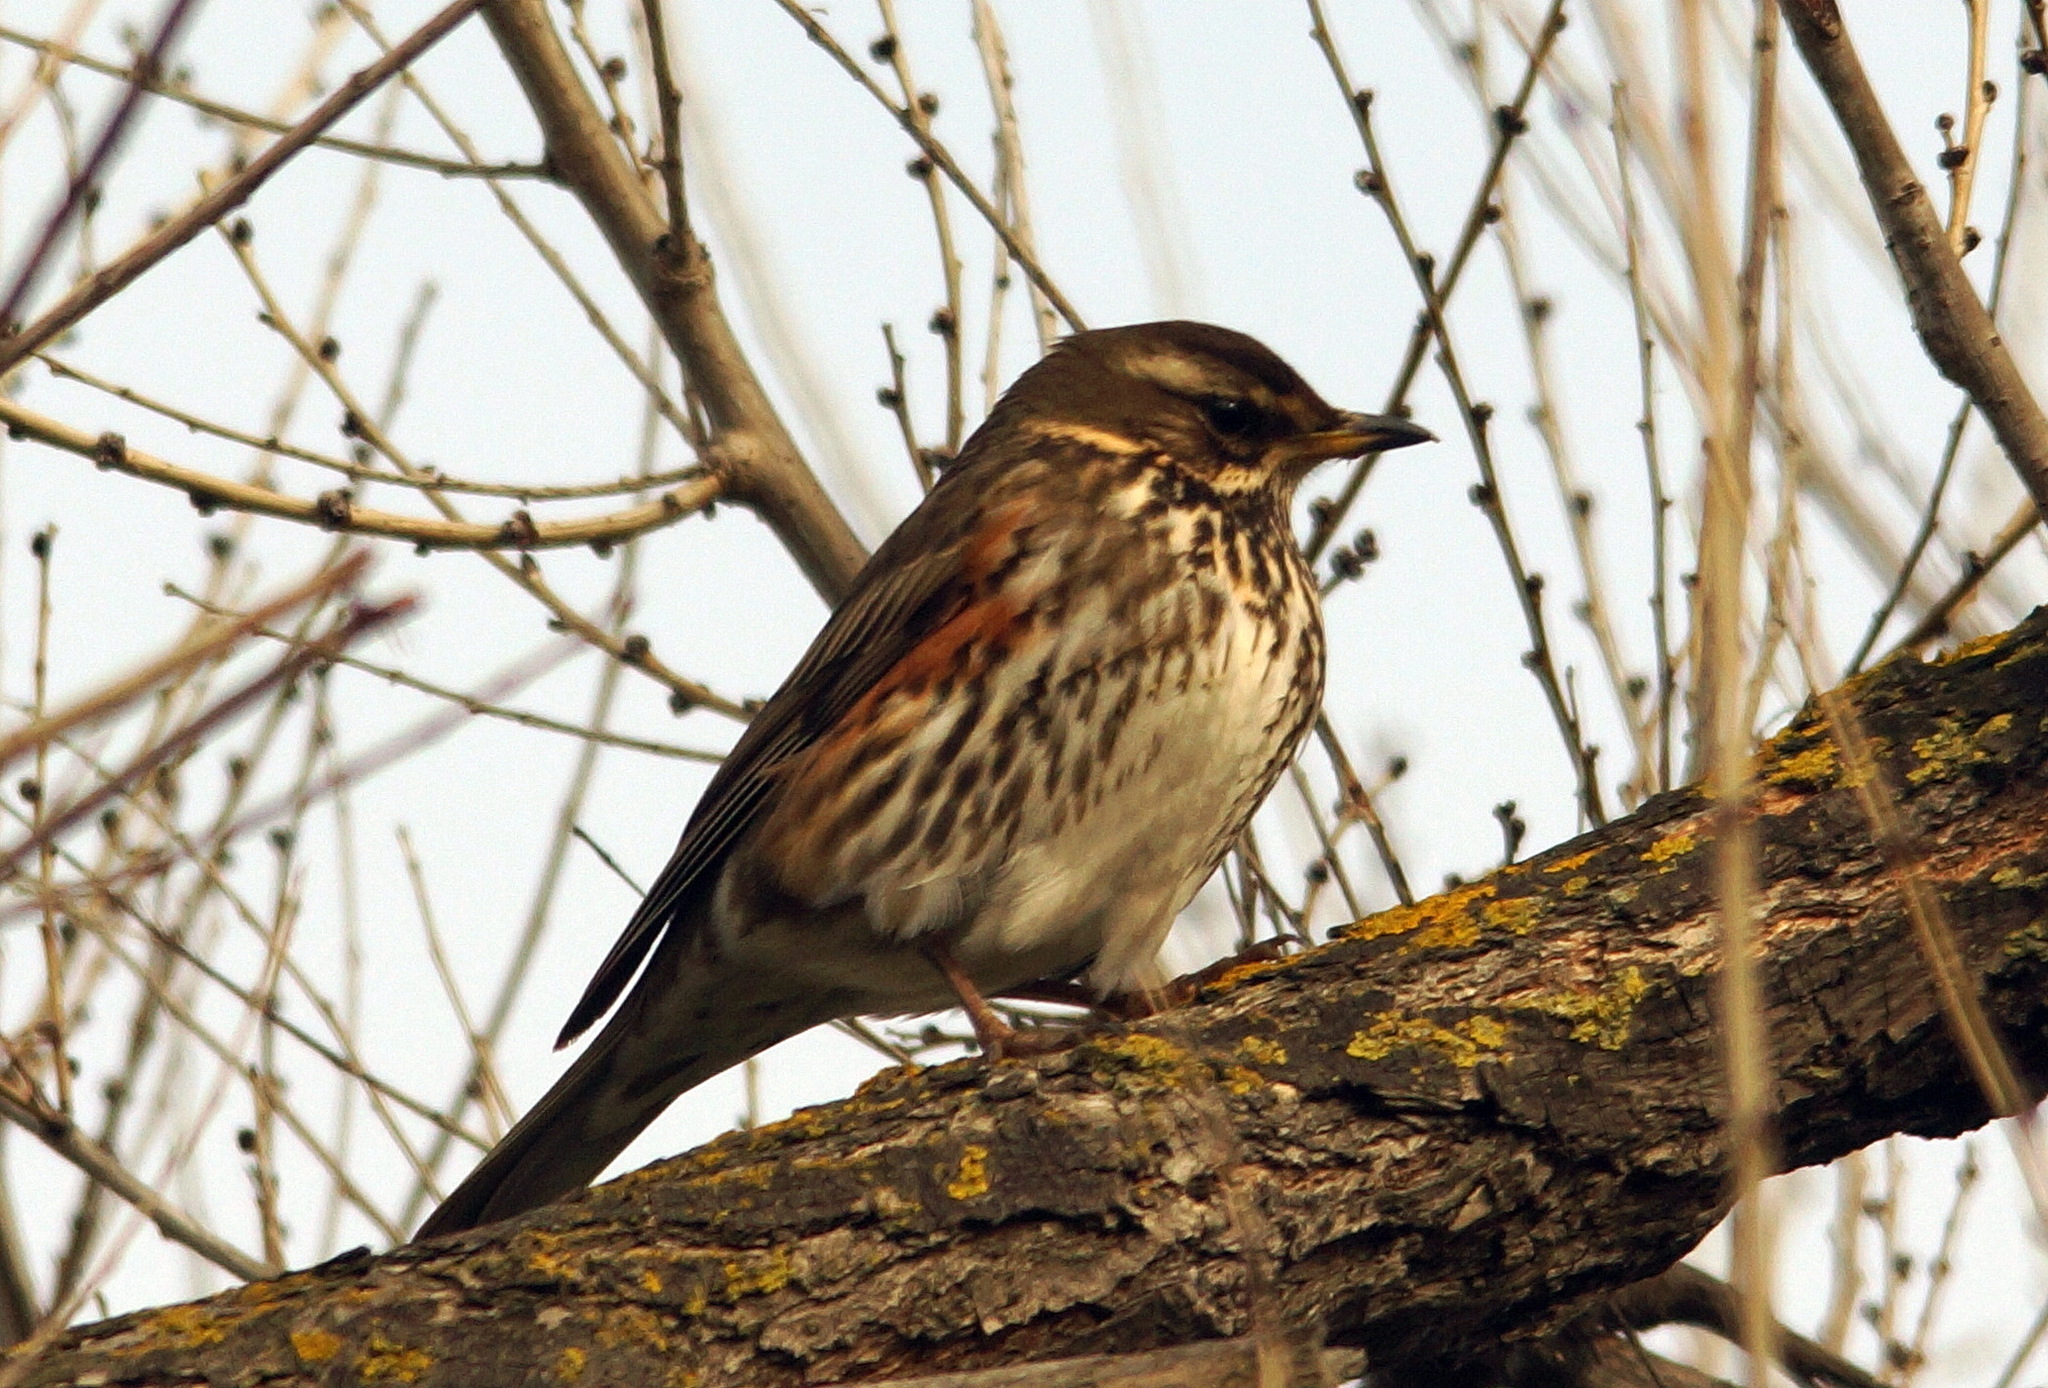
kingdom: Animalia
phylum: Chordata
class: Aves
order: Passeriformes
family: Turdidae
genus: Turdus
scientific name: Turdus iliacus
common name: Redwing
